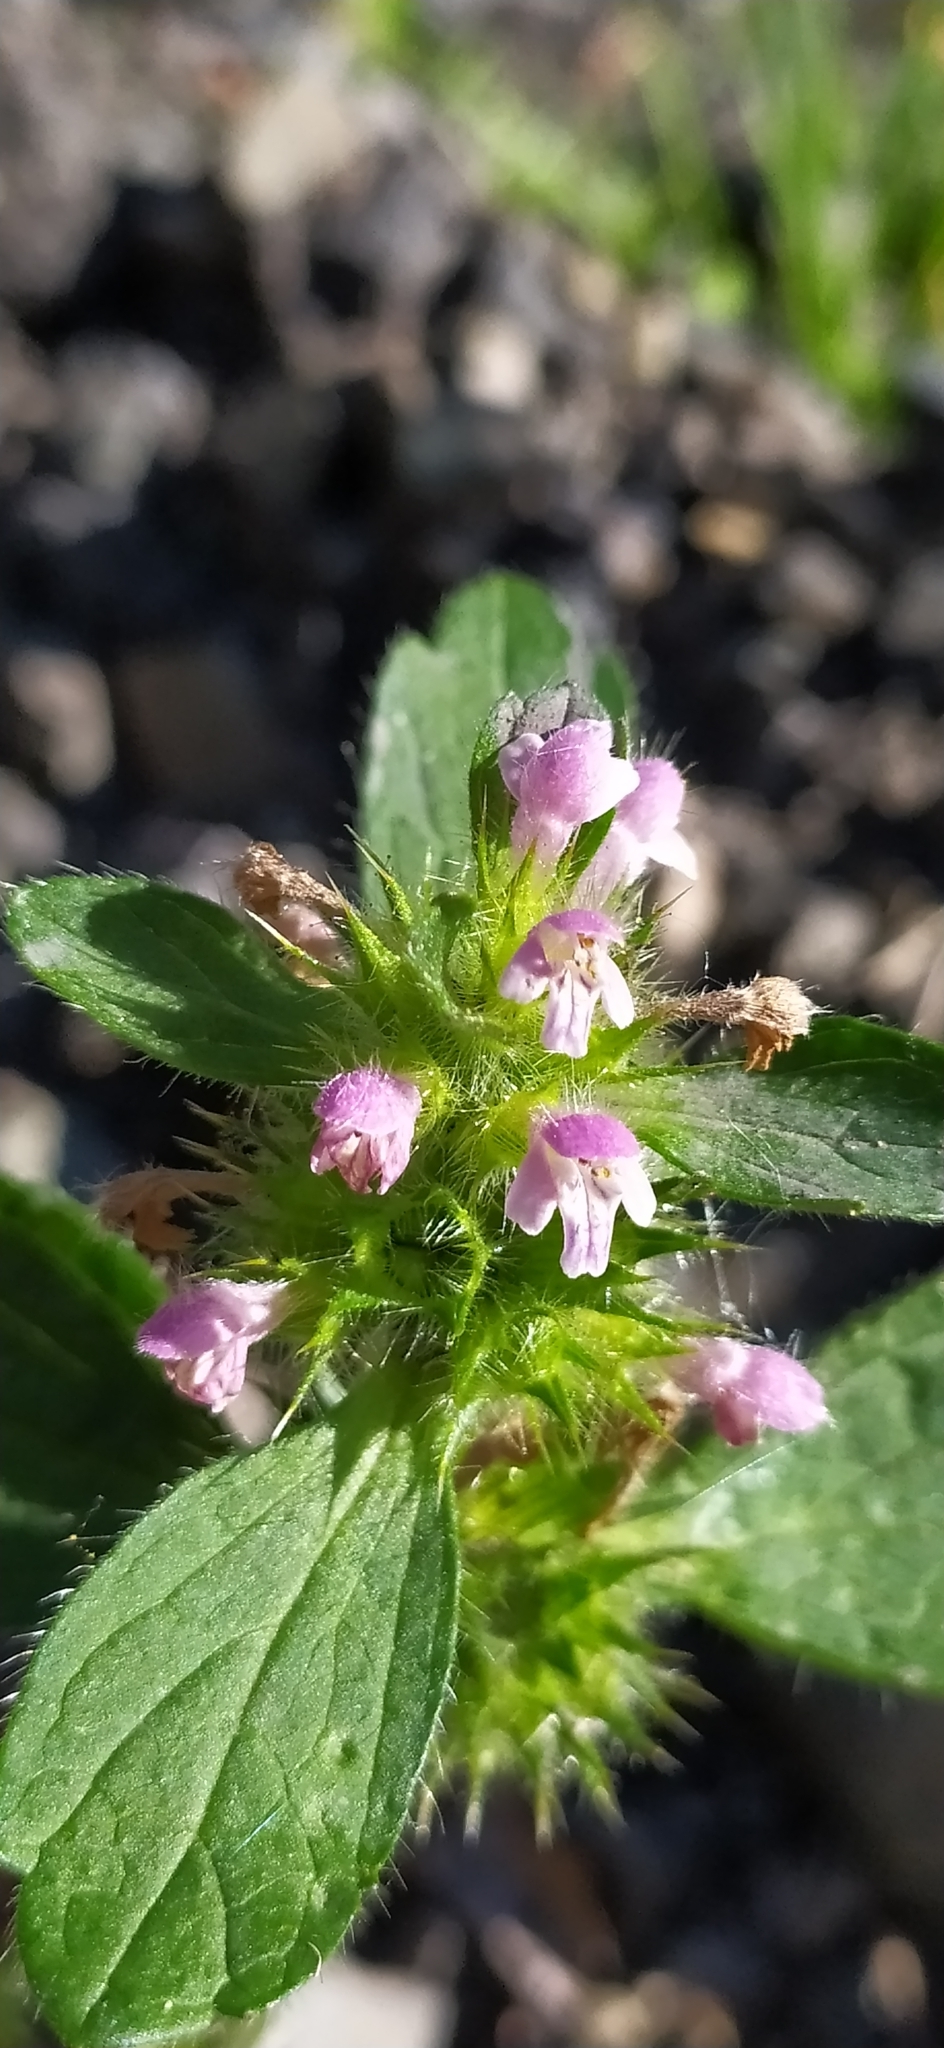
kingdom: Plantae
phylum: Tracheophyta
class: Magnoliopsida
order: Lamiales
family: Lamiaceae
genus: Galeopsis
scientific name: Galeopsis bifida
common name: Bifid hemp-nettle
